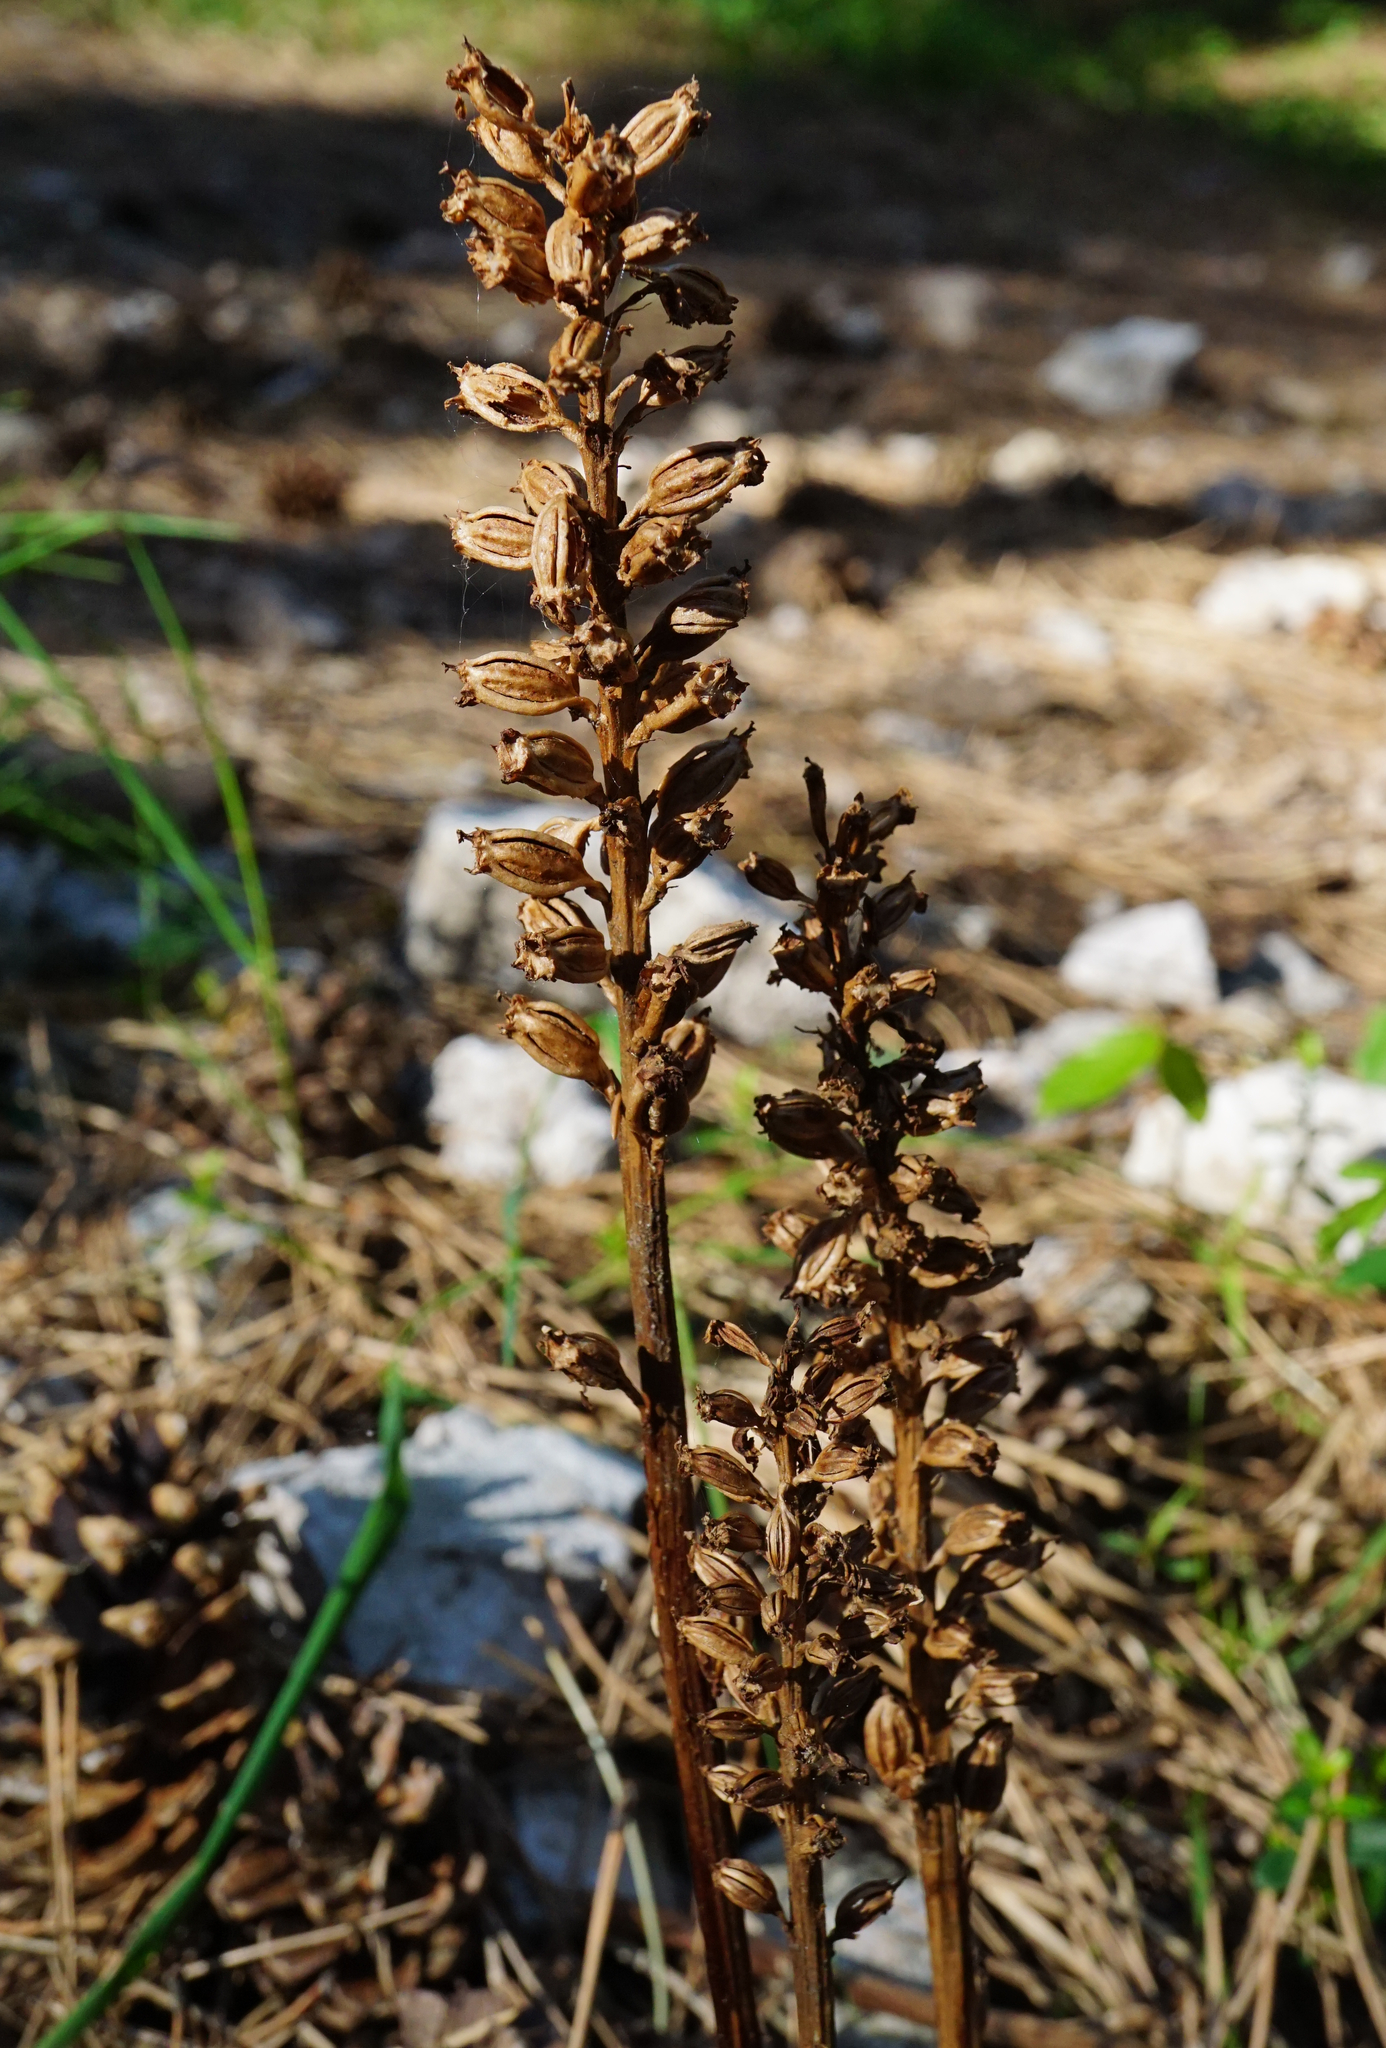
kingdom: Plantae
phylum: Tracheophyta
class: Liliopsida
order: Asparagales
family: Orchidaceae
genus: Neottia
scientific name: Neottia nidus-avis
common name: Bird's-nest orchid
